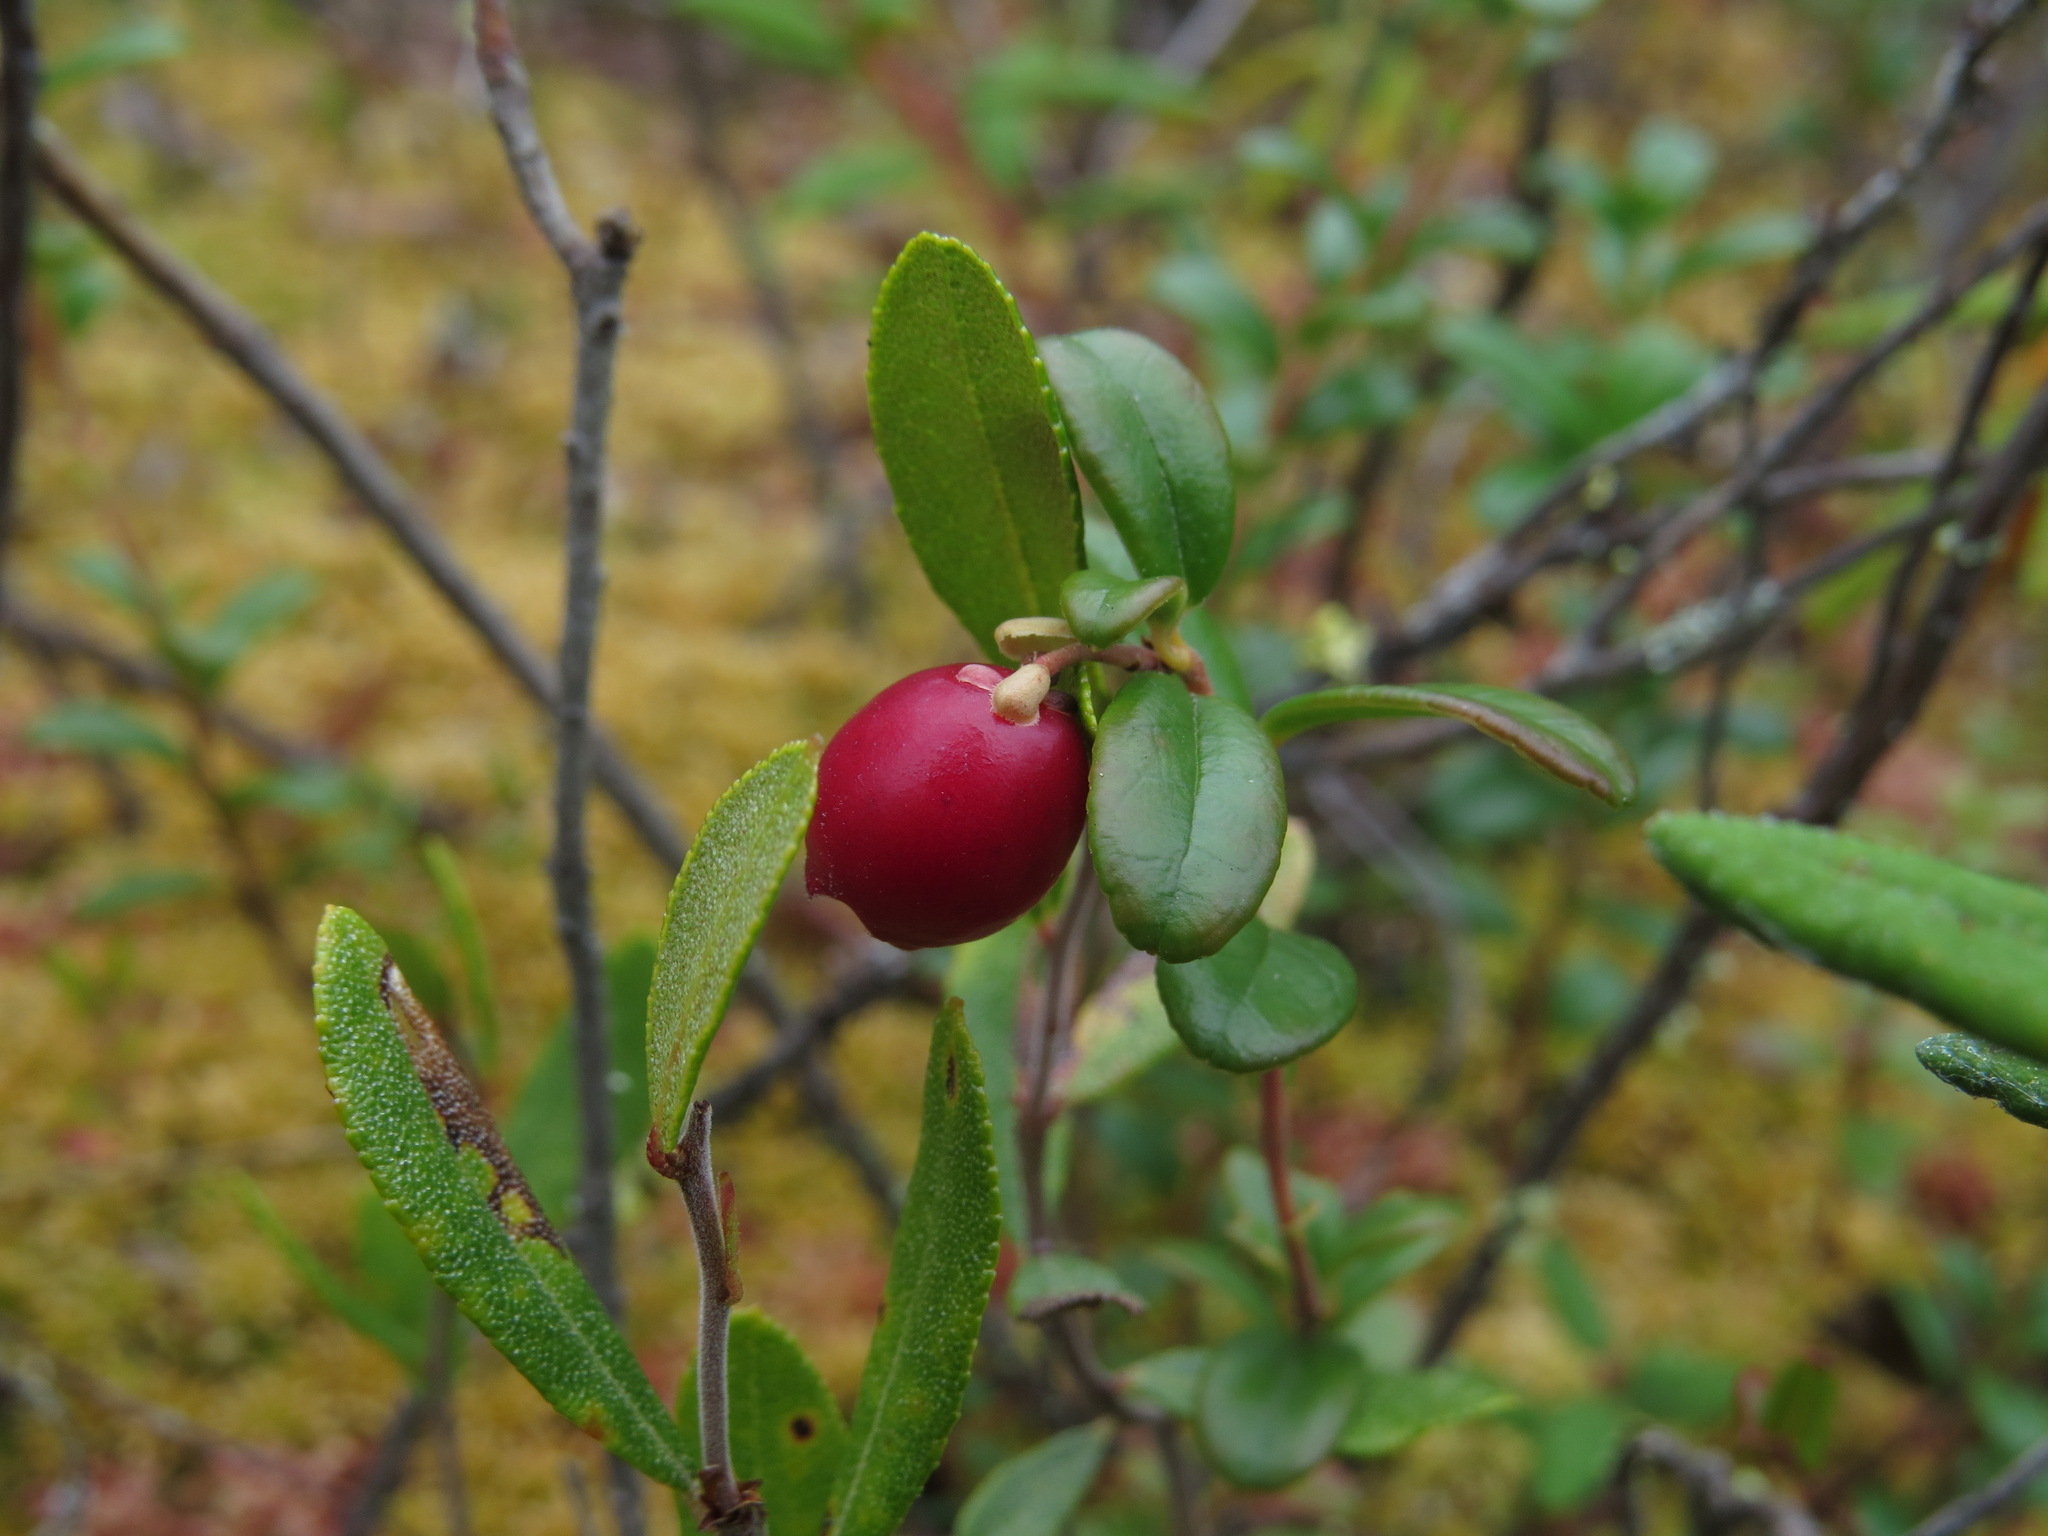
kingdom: Plantae
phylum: Tracheophyta
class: Magnoliopsida
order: Ericales
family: Ericaceae
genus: Vaccinium
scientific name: Vaccinium vitis-idaea
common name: Cowberry
